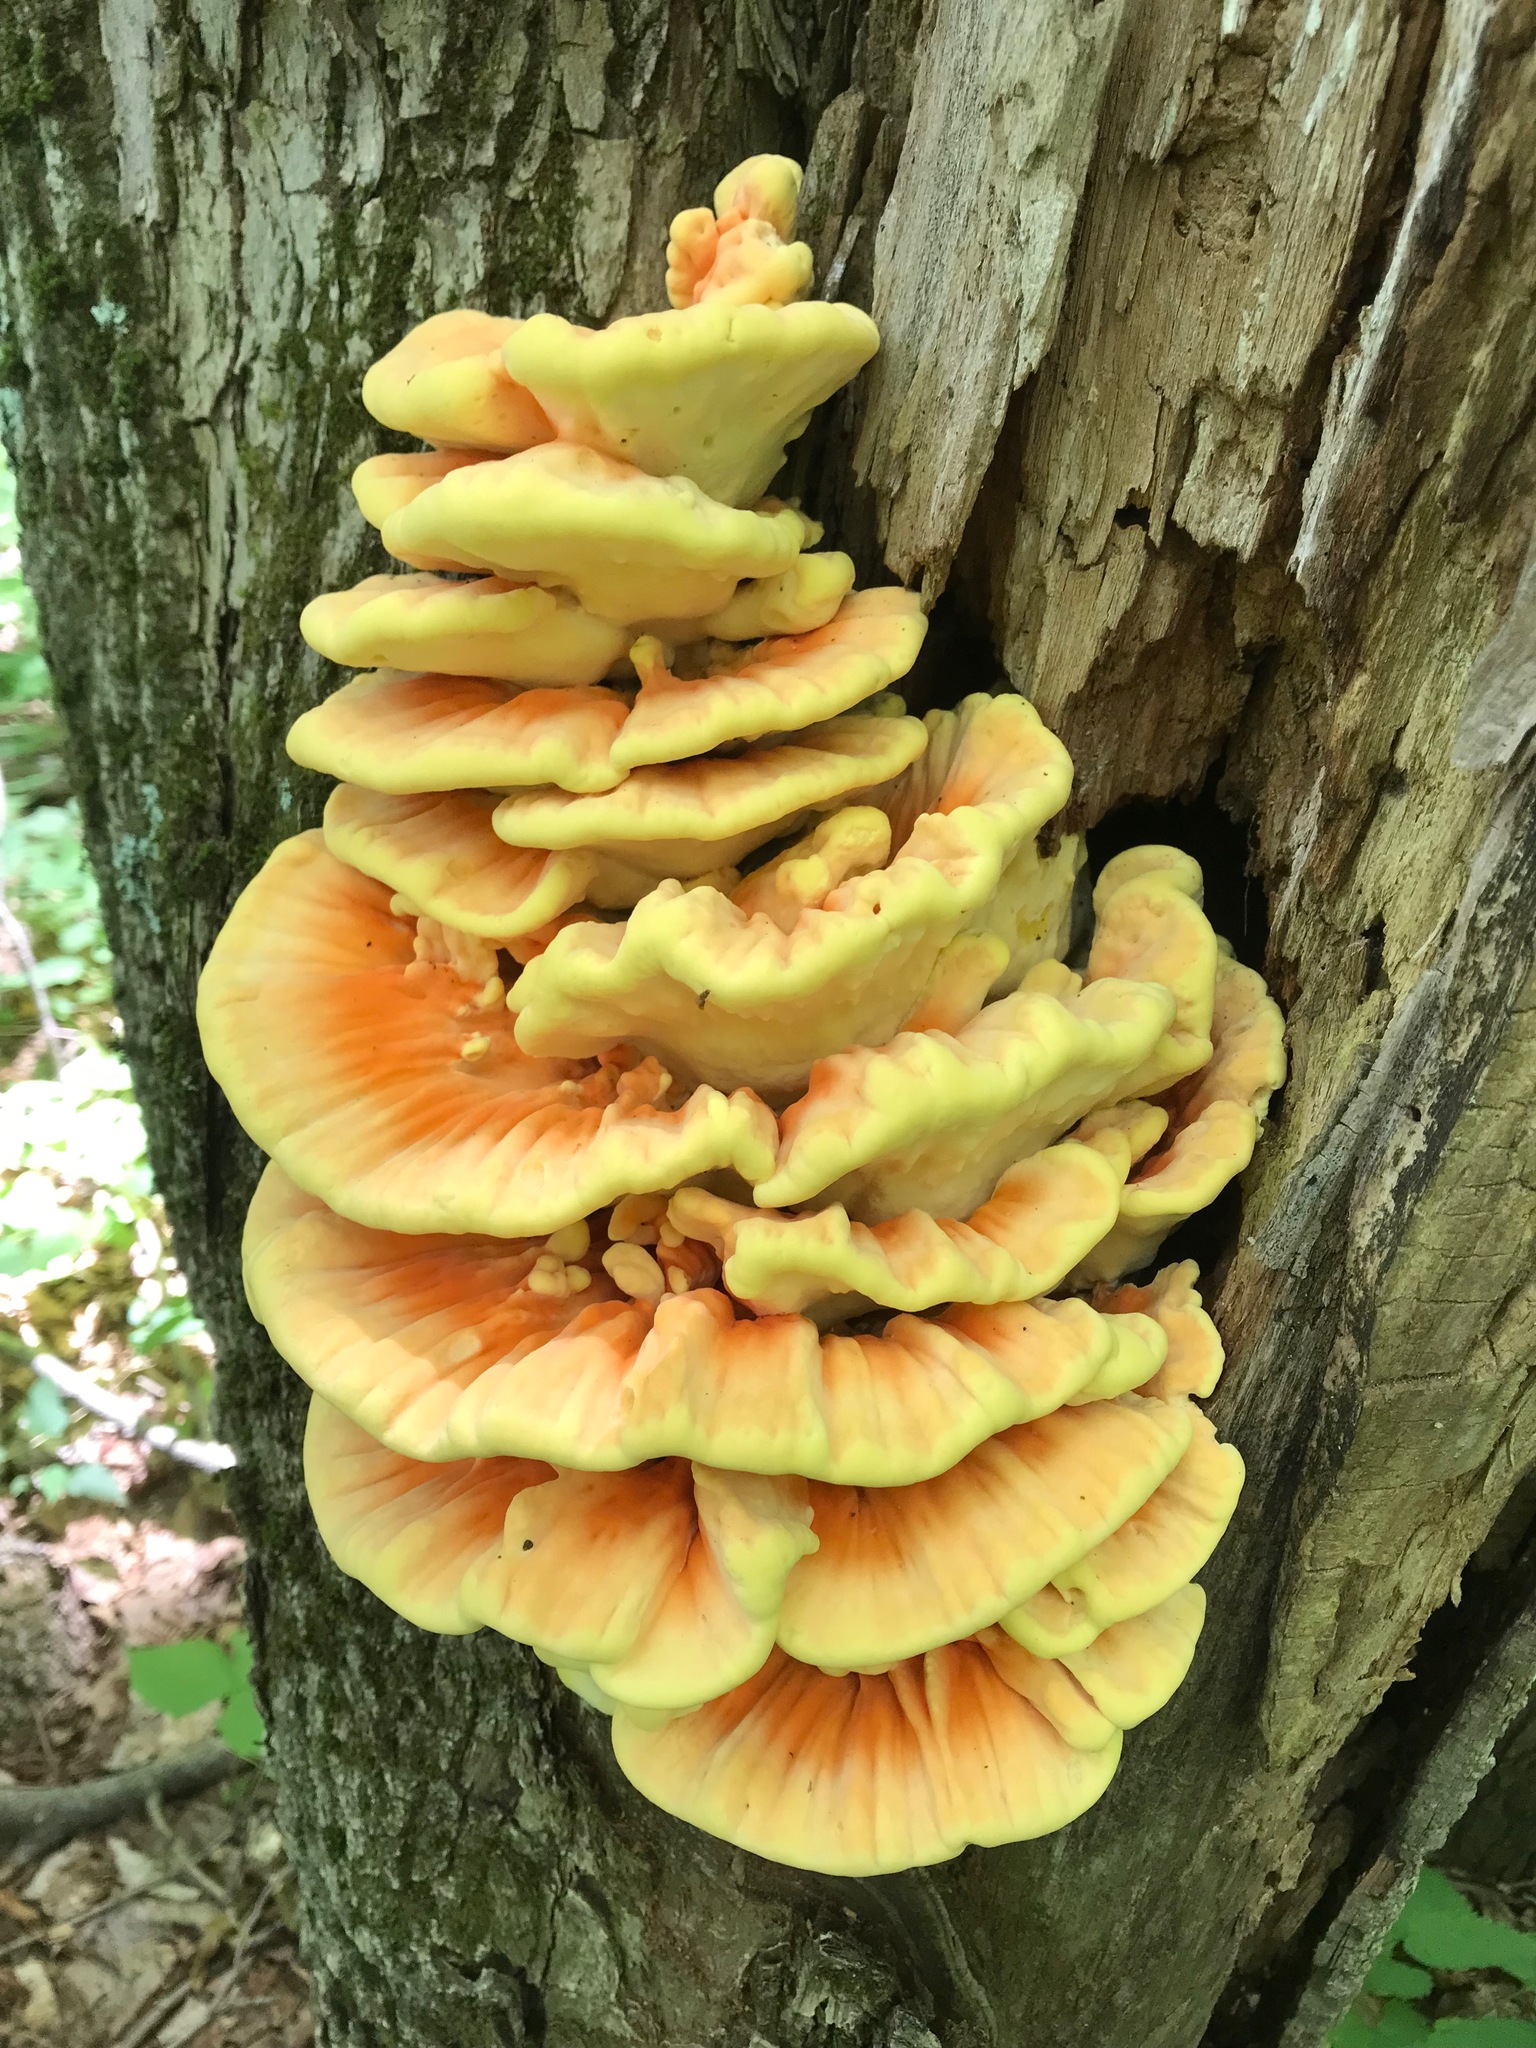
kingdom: Fungi
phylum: Basidiomycota
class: Agaricomycetes
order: Polyporales
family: Laetiporaceae
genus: Laetiporus
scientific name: Laetiporus sulphureus
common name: Chicken of the woods
